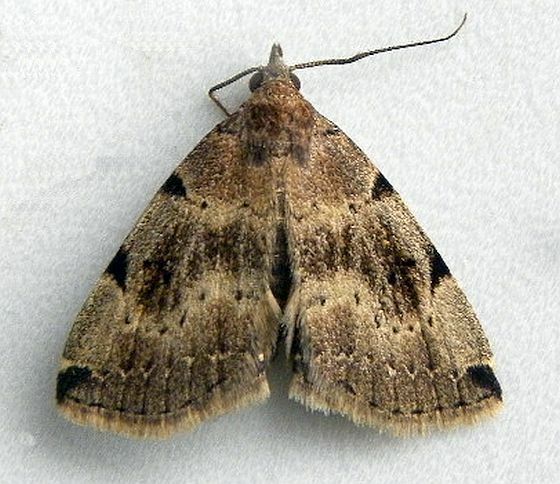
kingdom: Animalia
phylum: Arthropoda
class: Insecta
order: Lepidoptera
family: Erebidae
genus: Zanclognatha
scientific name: Zanclognatha lituralis
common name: Lettered fan-foot
